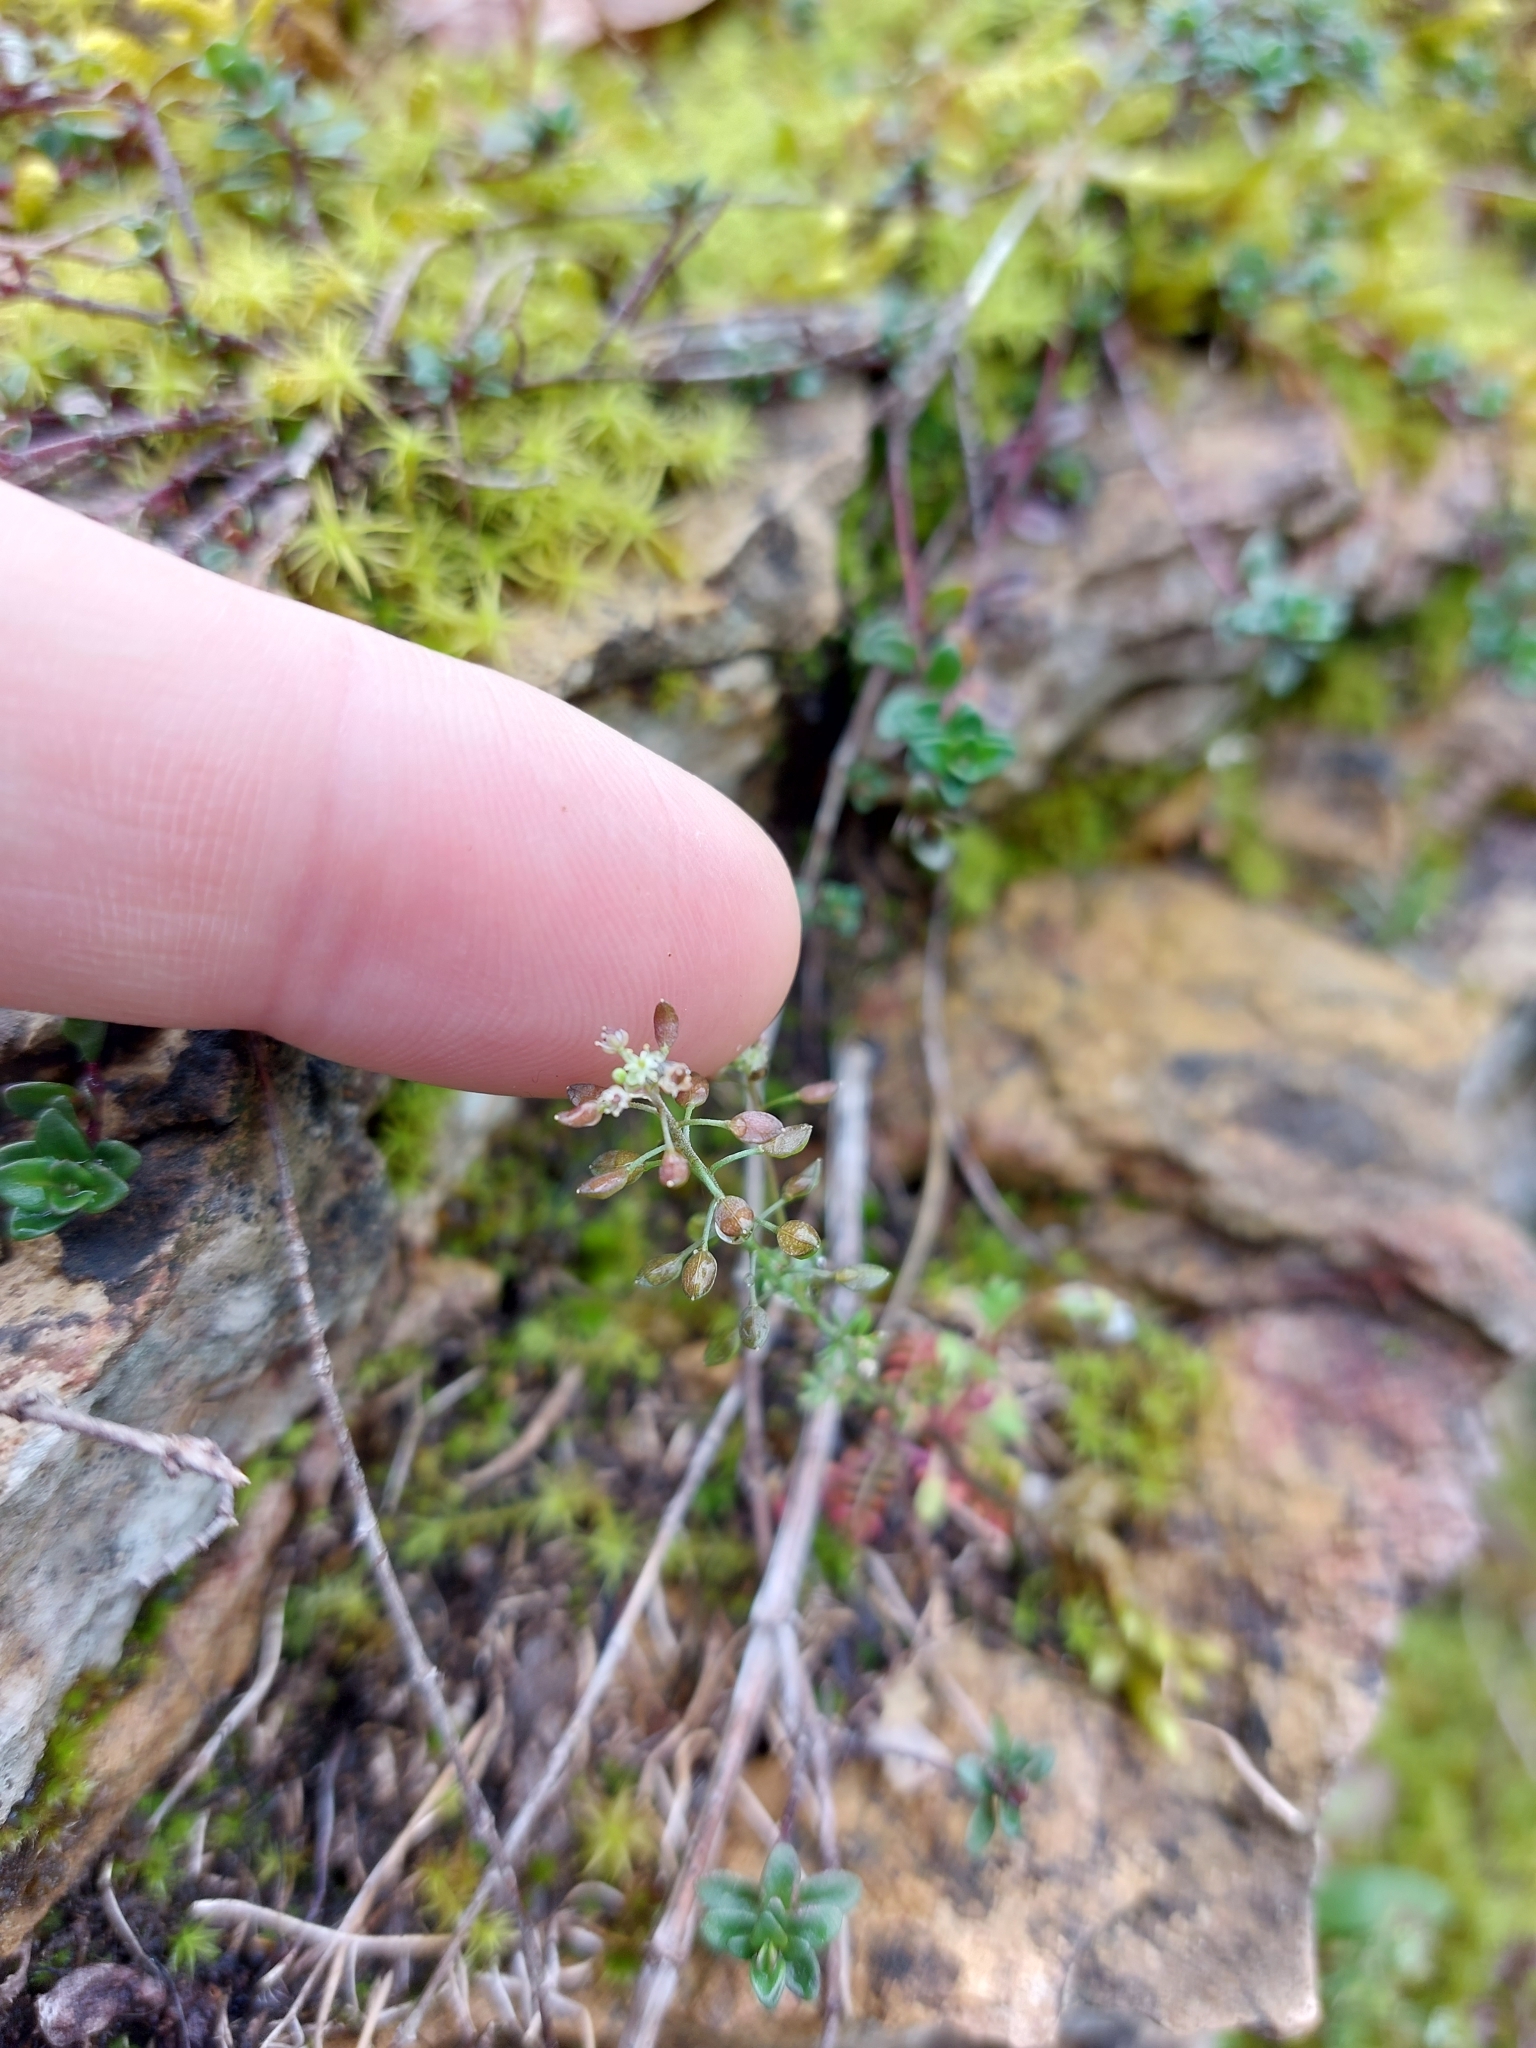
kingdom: Plantae
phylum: Tracheophyta
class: Magnoliopsida
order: Brassicales
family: Brassicaceae
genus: Hornungia
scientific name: Hornungia petraea
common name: Hutchinsia
